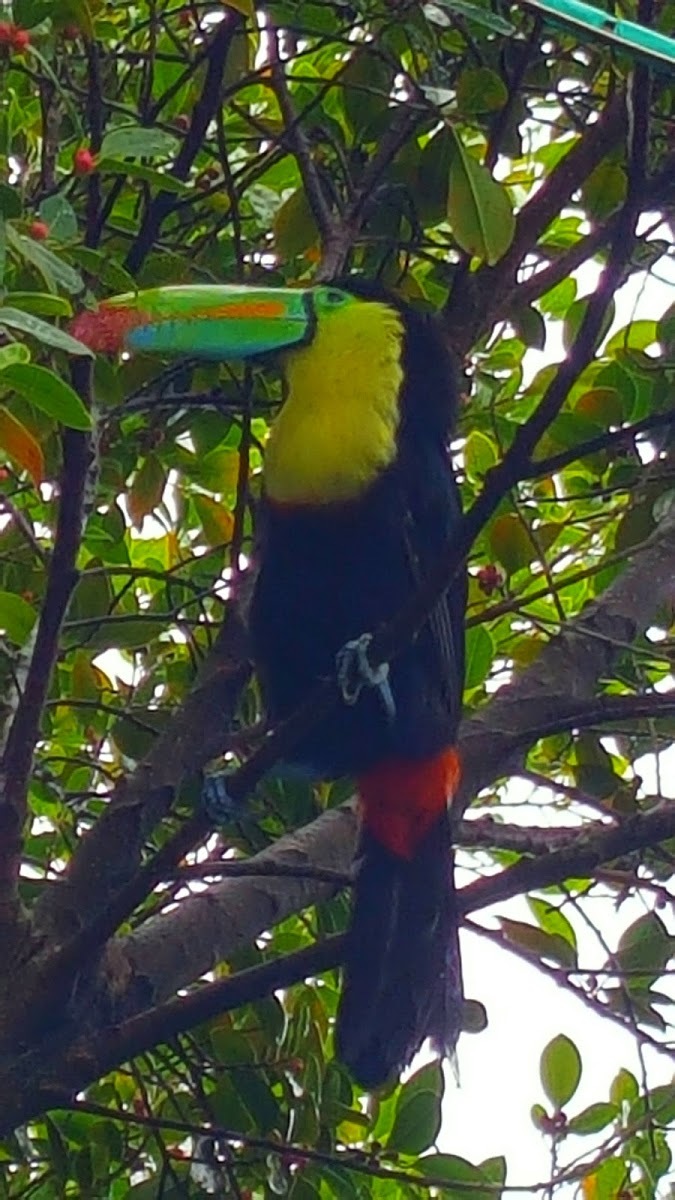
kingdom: Animalia
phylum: Chordata
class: Aves
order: Piciformes
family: Ramphastidae
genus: Ramphastos
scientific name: Ramphastos sulfuratus
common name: Keel-billed toucan
